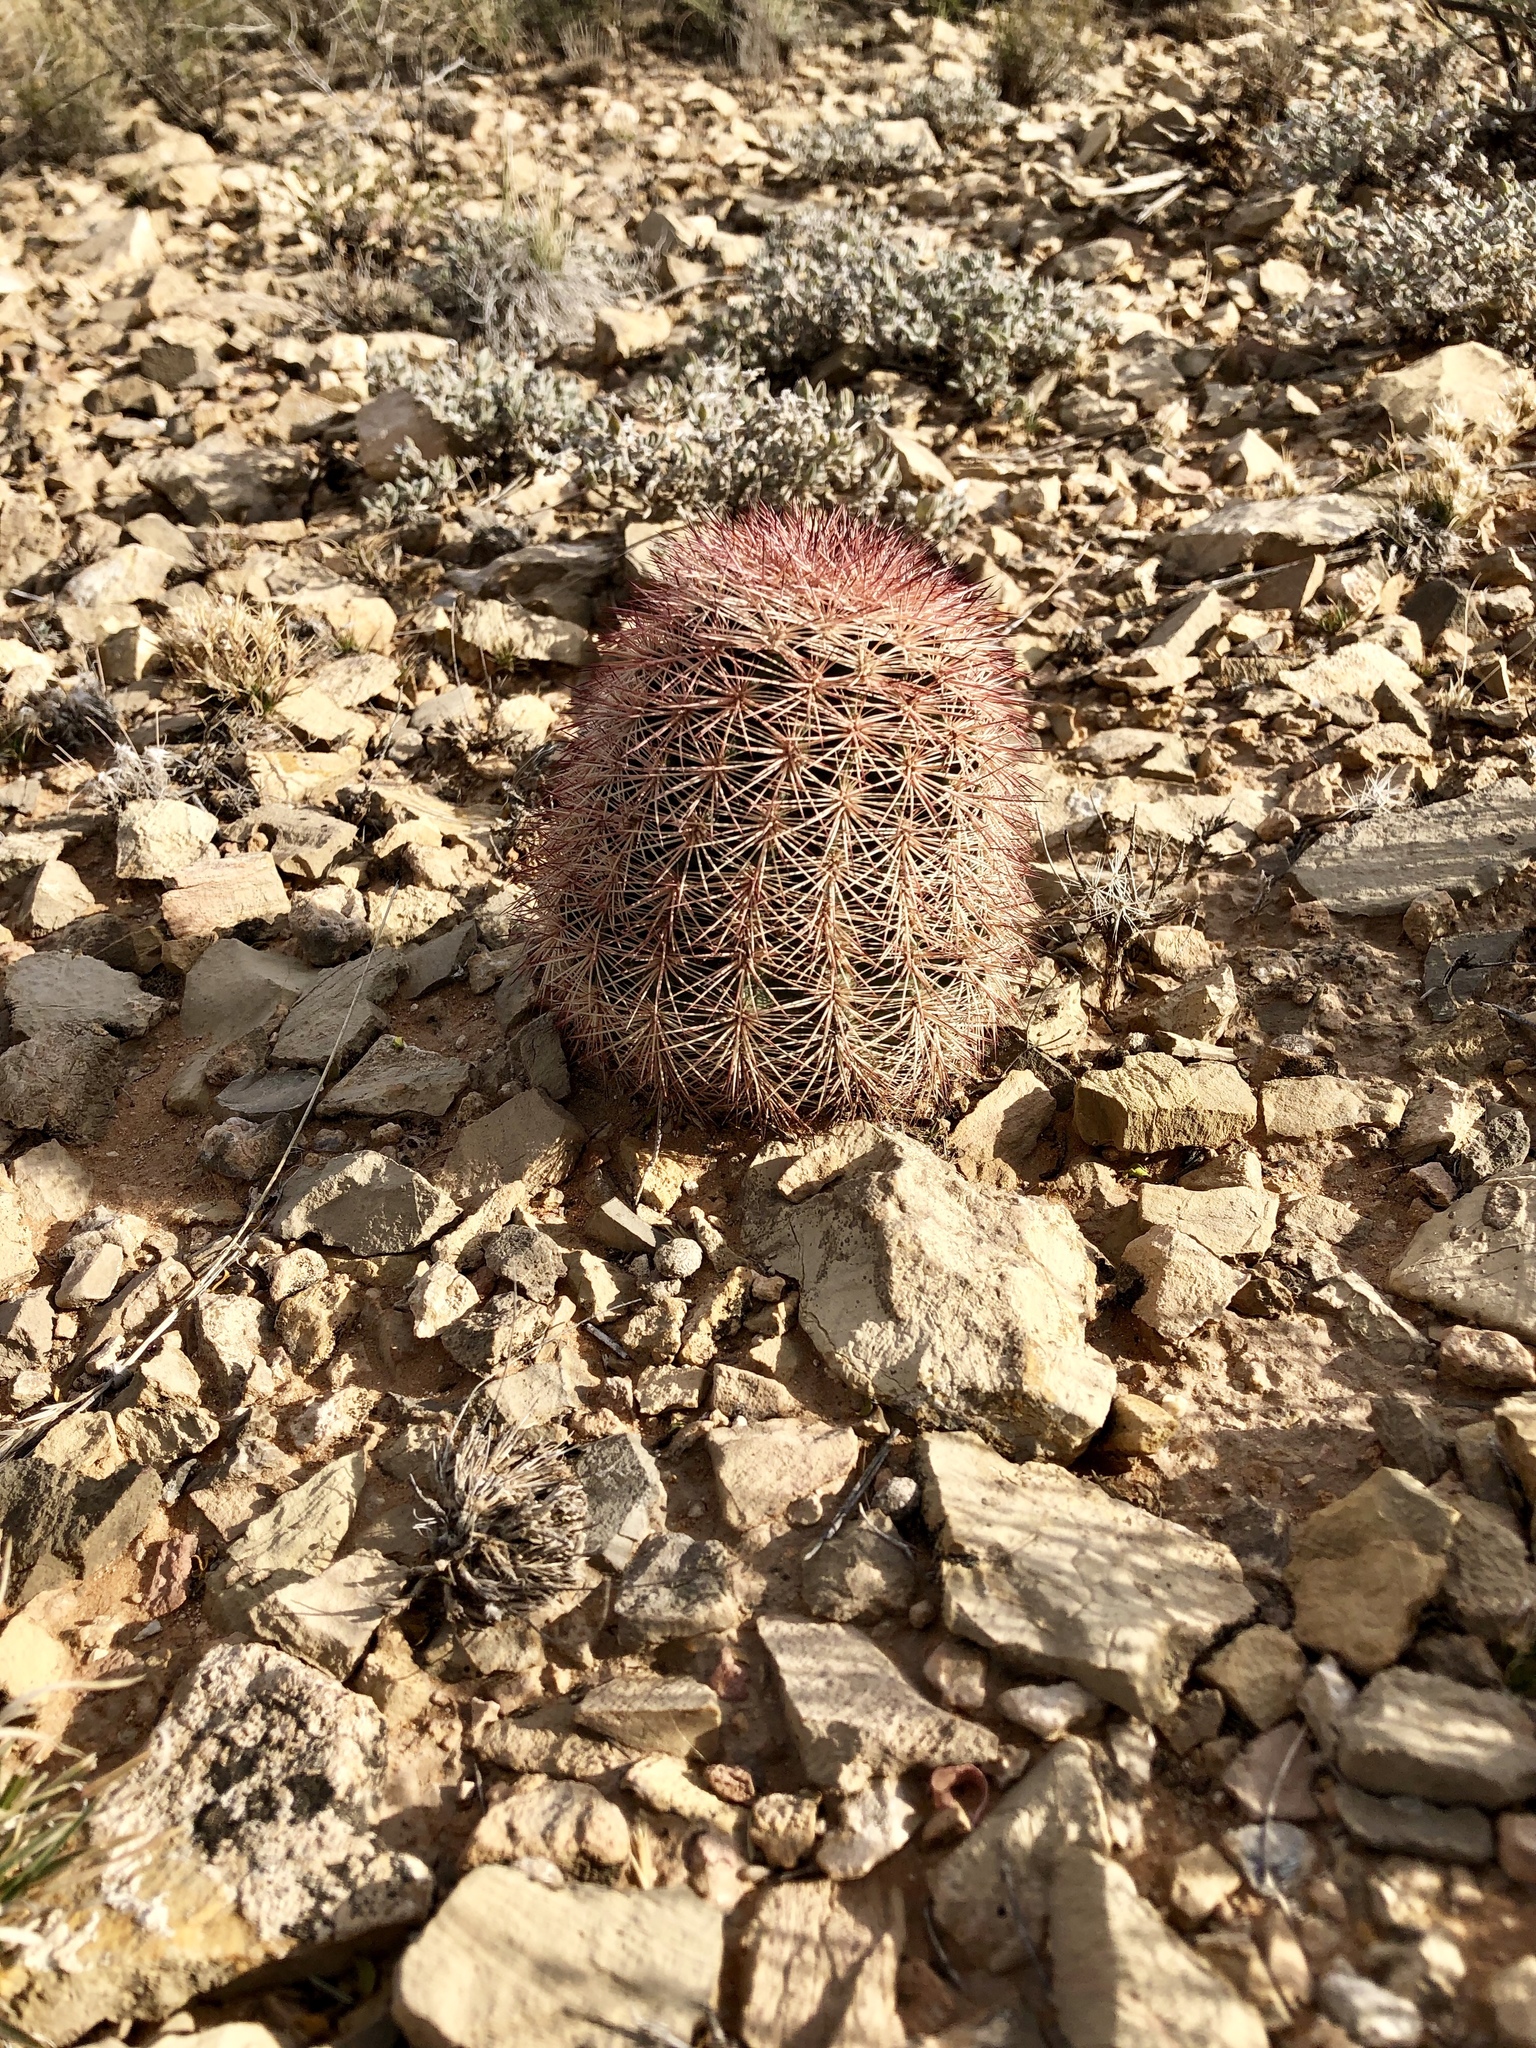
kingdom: Plantae
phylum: Tracheophyta
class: Magnoliopsida
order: Caryophyllales
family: Cactaceae
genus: Echinocereus
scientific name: Echinocereus dasyacanthus
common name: Spiny hedgehog cactus
